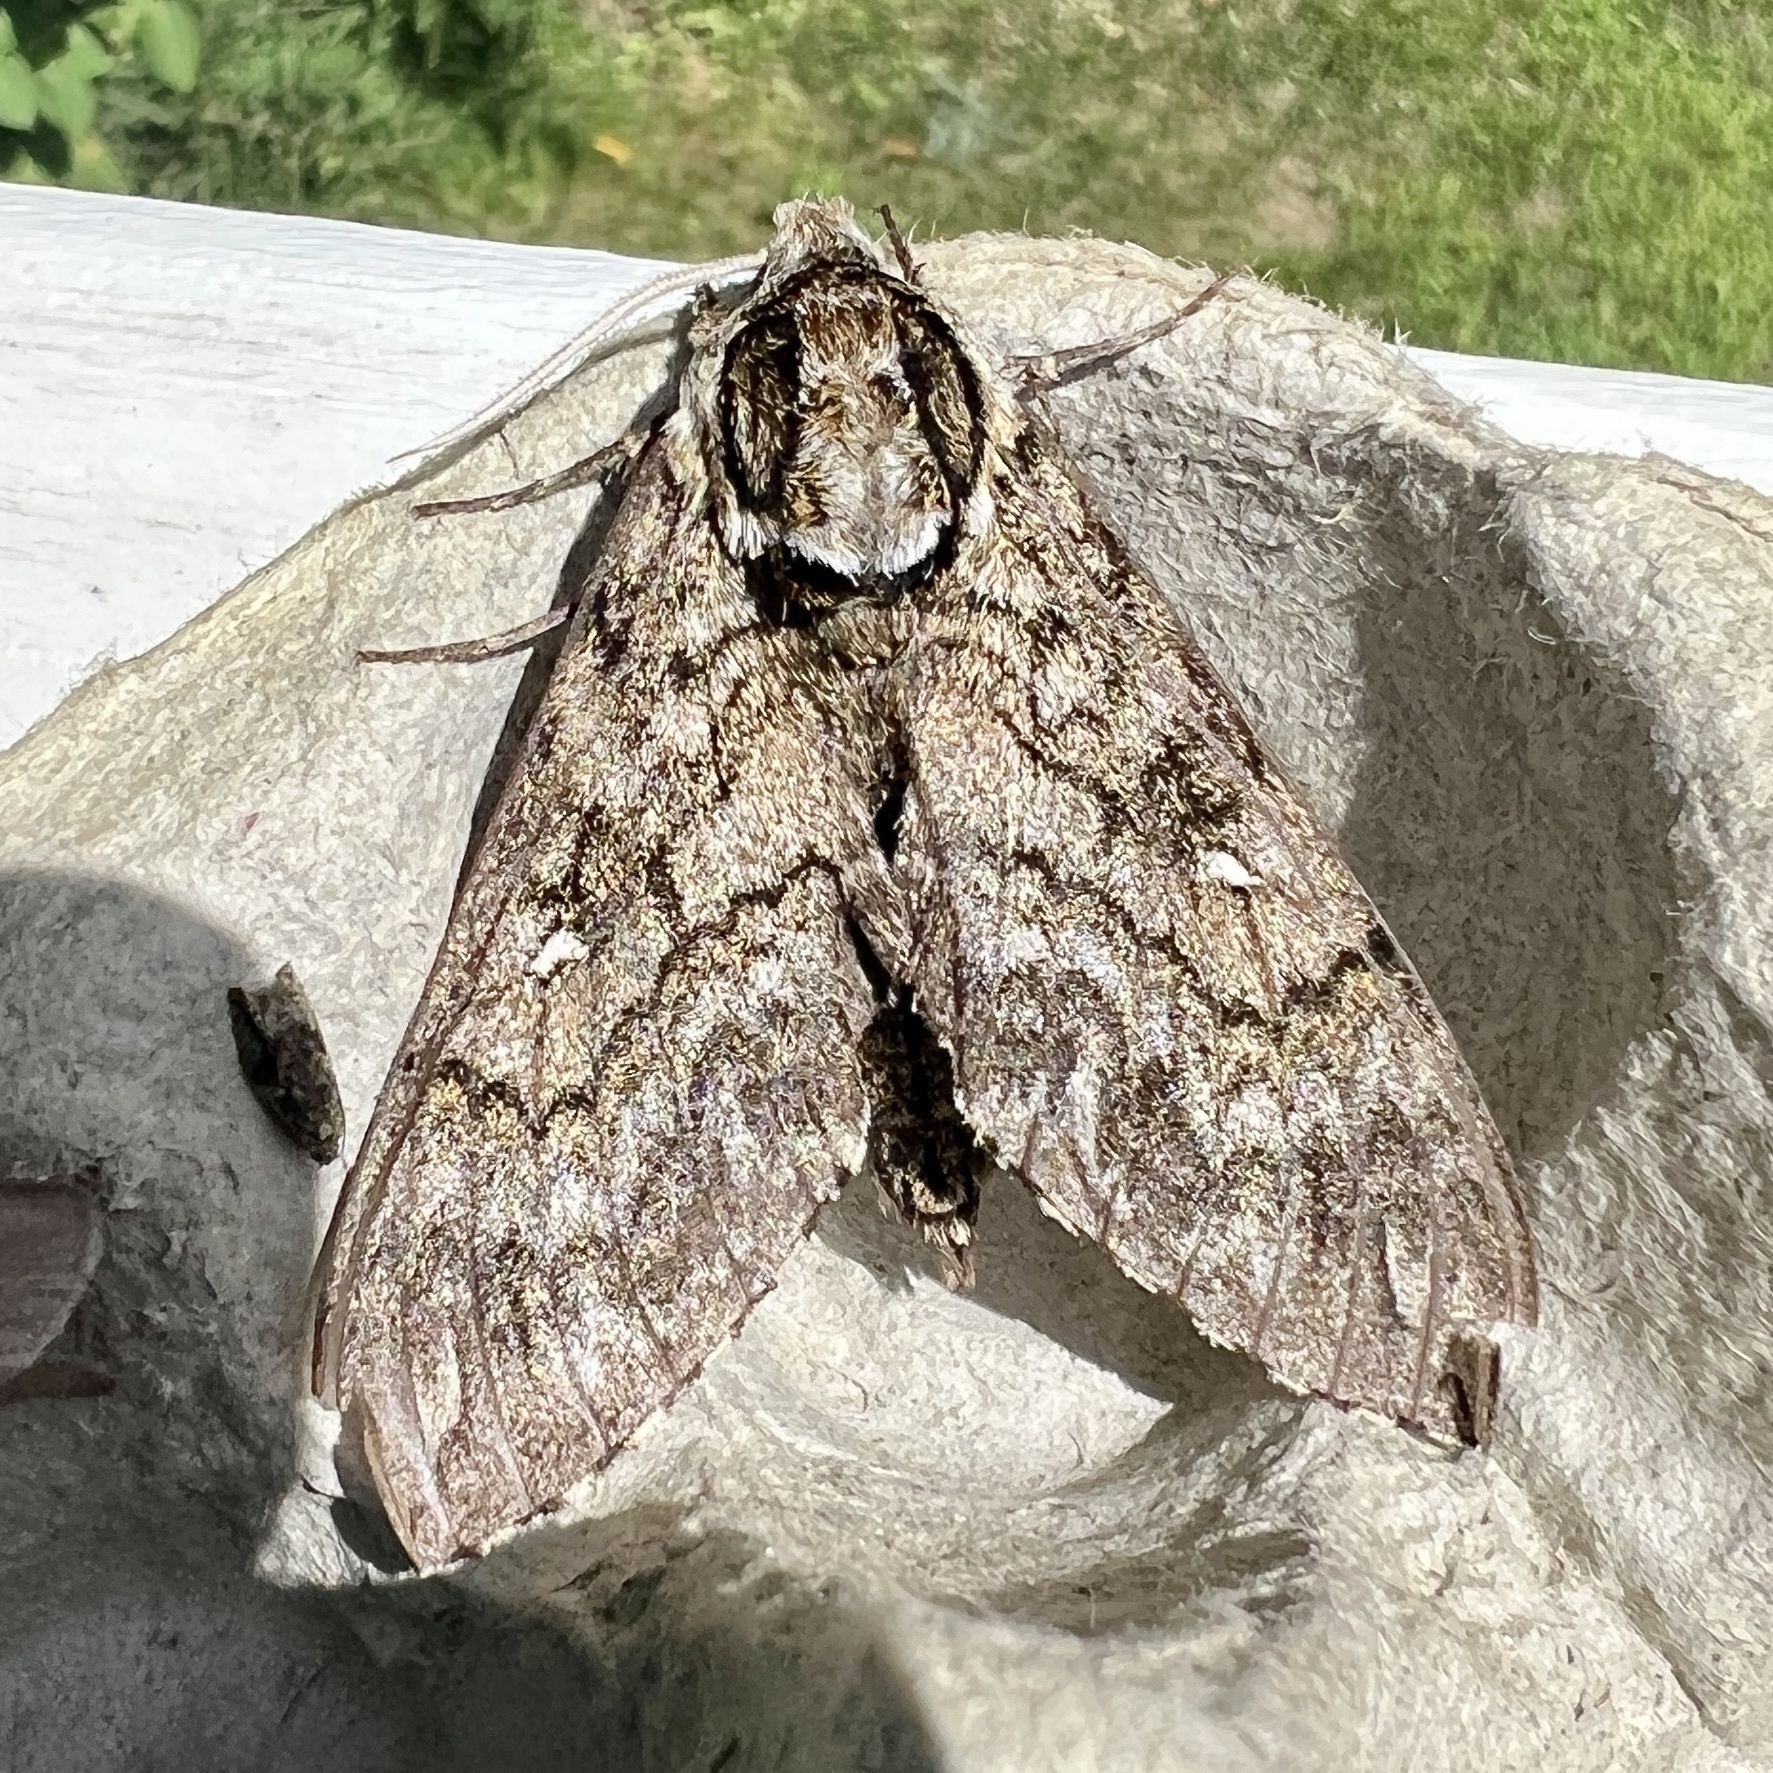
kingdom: Animalia
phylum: Arthropoda
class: Insecta
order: Lepidoptera
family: Sphingidae
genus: Ceratomia
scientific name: Ceratomia undulosa
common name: Waved sphinx
